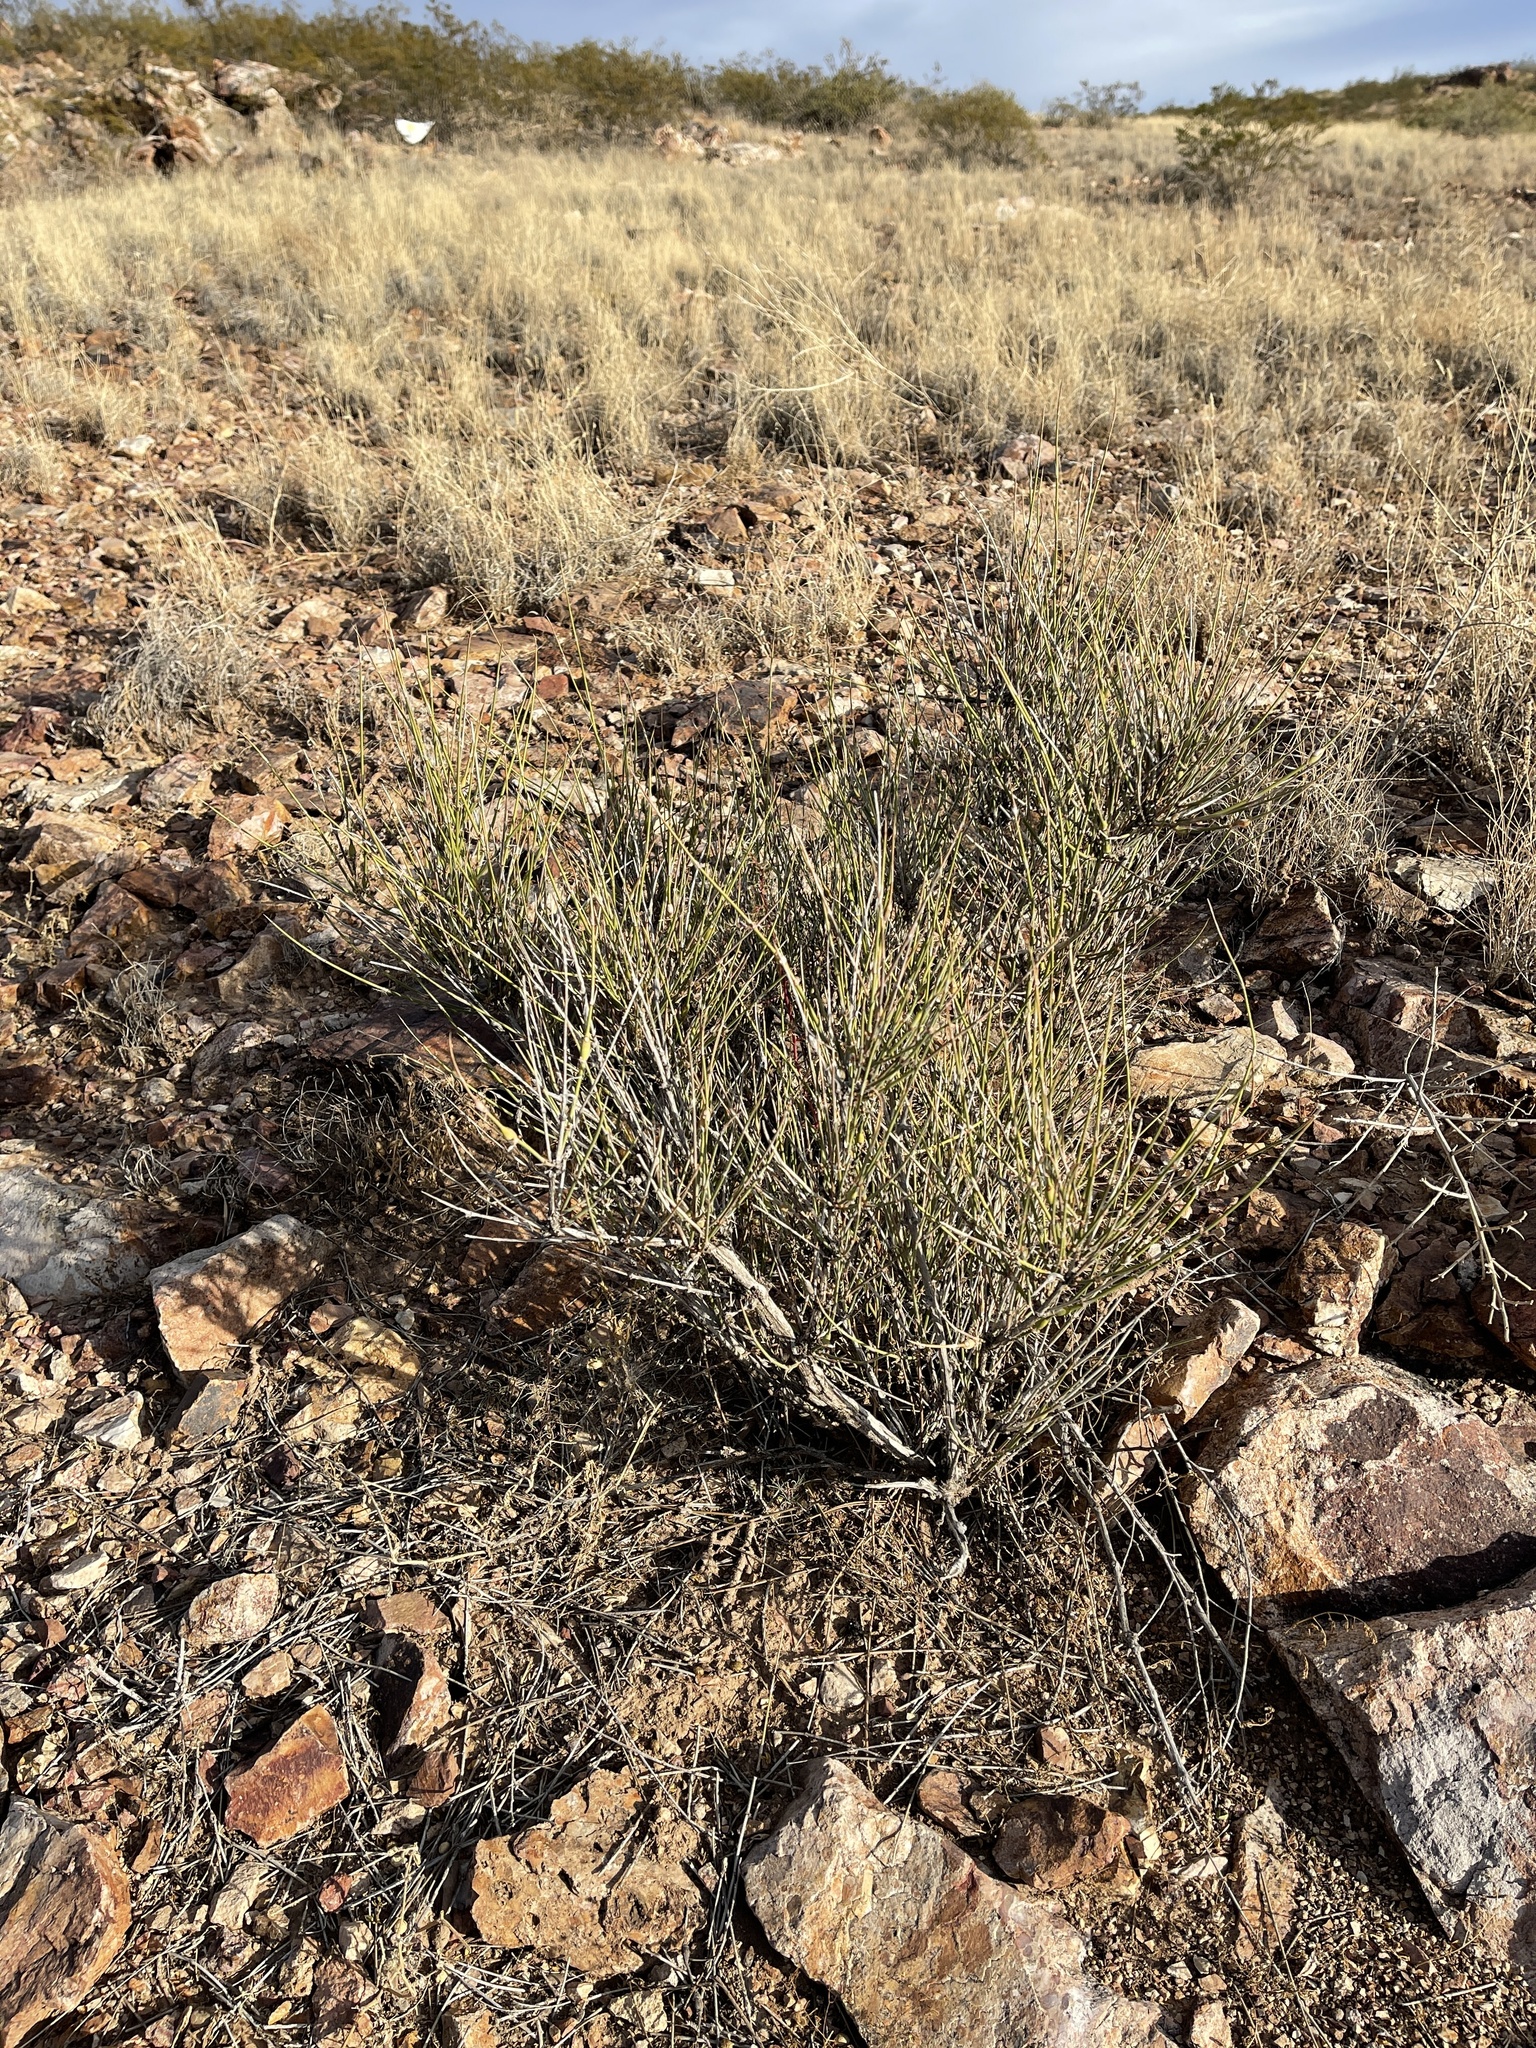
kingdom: Plantae
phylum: Tracheophyta
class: Gnetopsida
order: Ephedrales
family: Ephedraceae
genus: Ephedra
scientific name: Ephedra trifurca
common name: Mexican-tea
